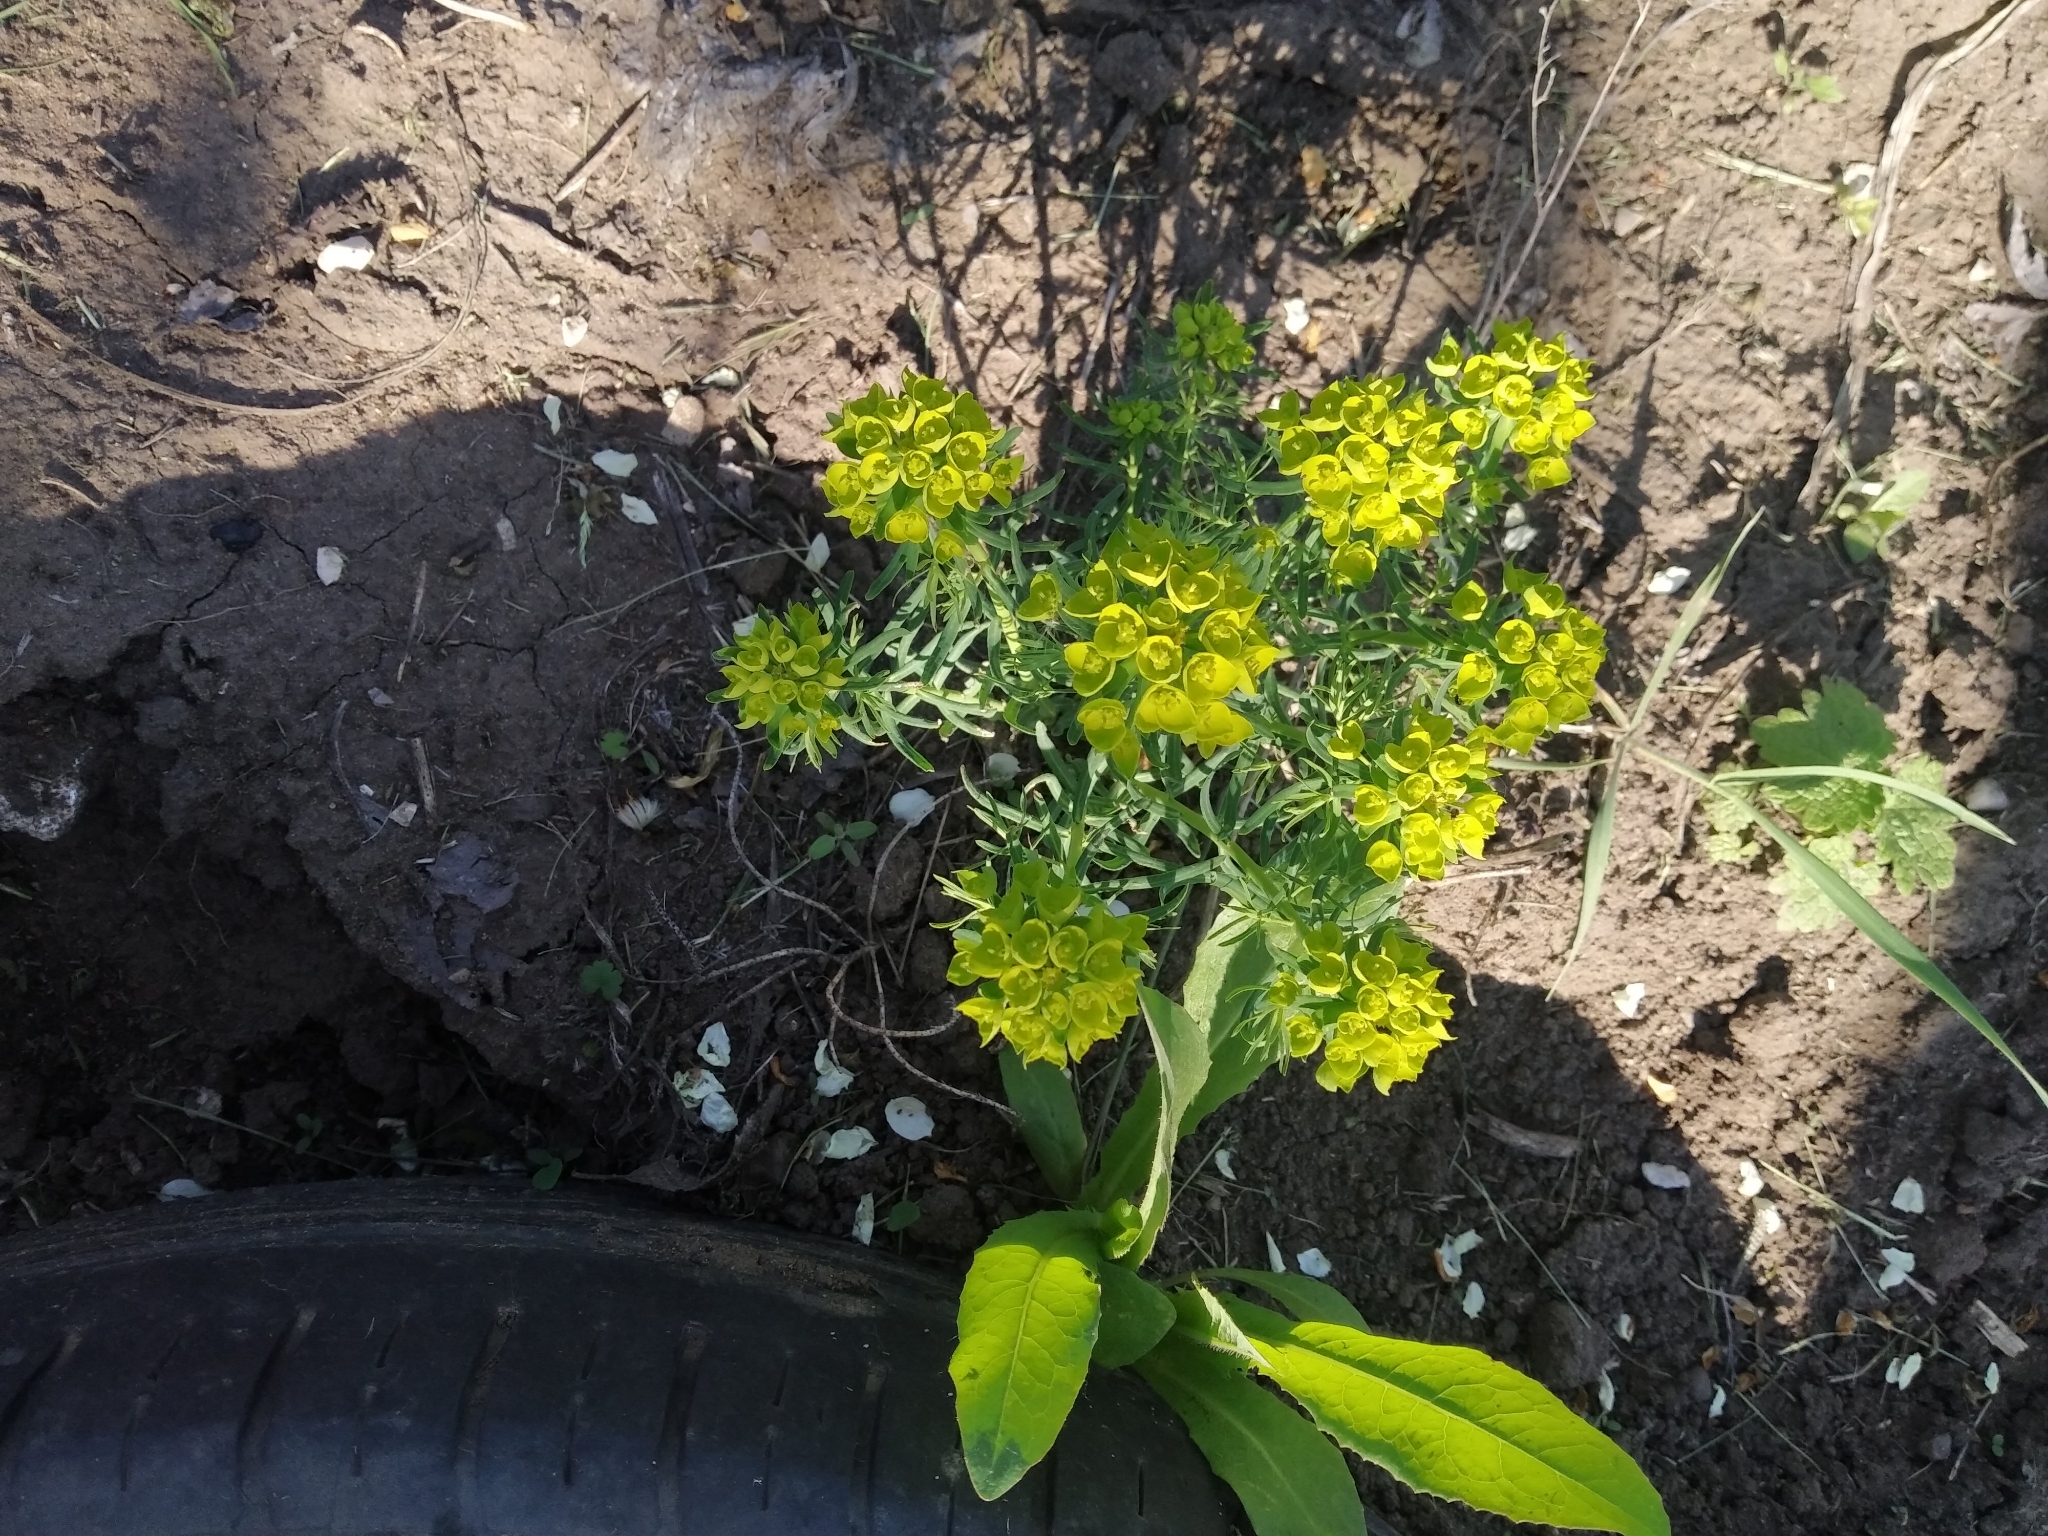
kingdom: Plantae
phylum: Tracheophyta
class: Magnoliopsida
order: Malpighiales
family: Euphorbiaceae
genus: Euphorbia
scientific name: Euphorbia cyparissias
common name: Cypress spurge
